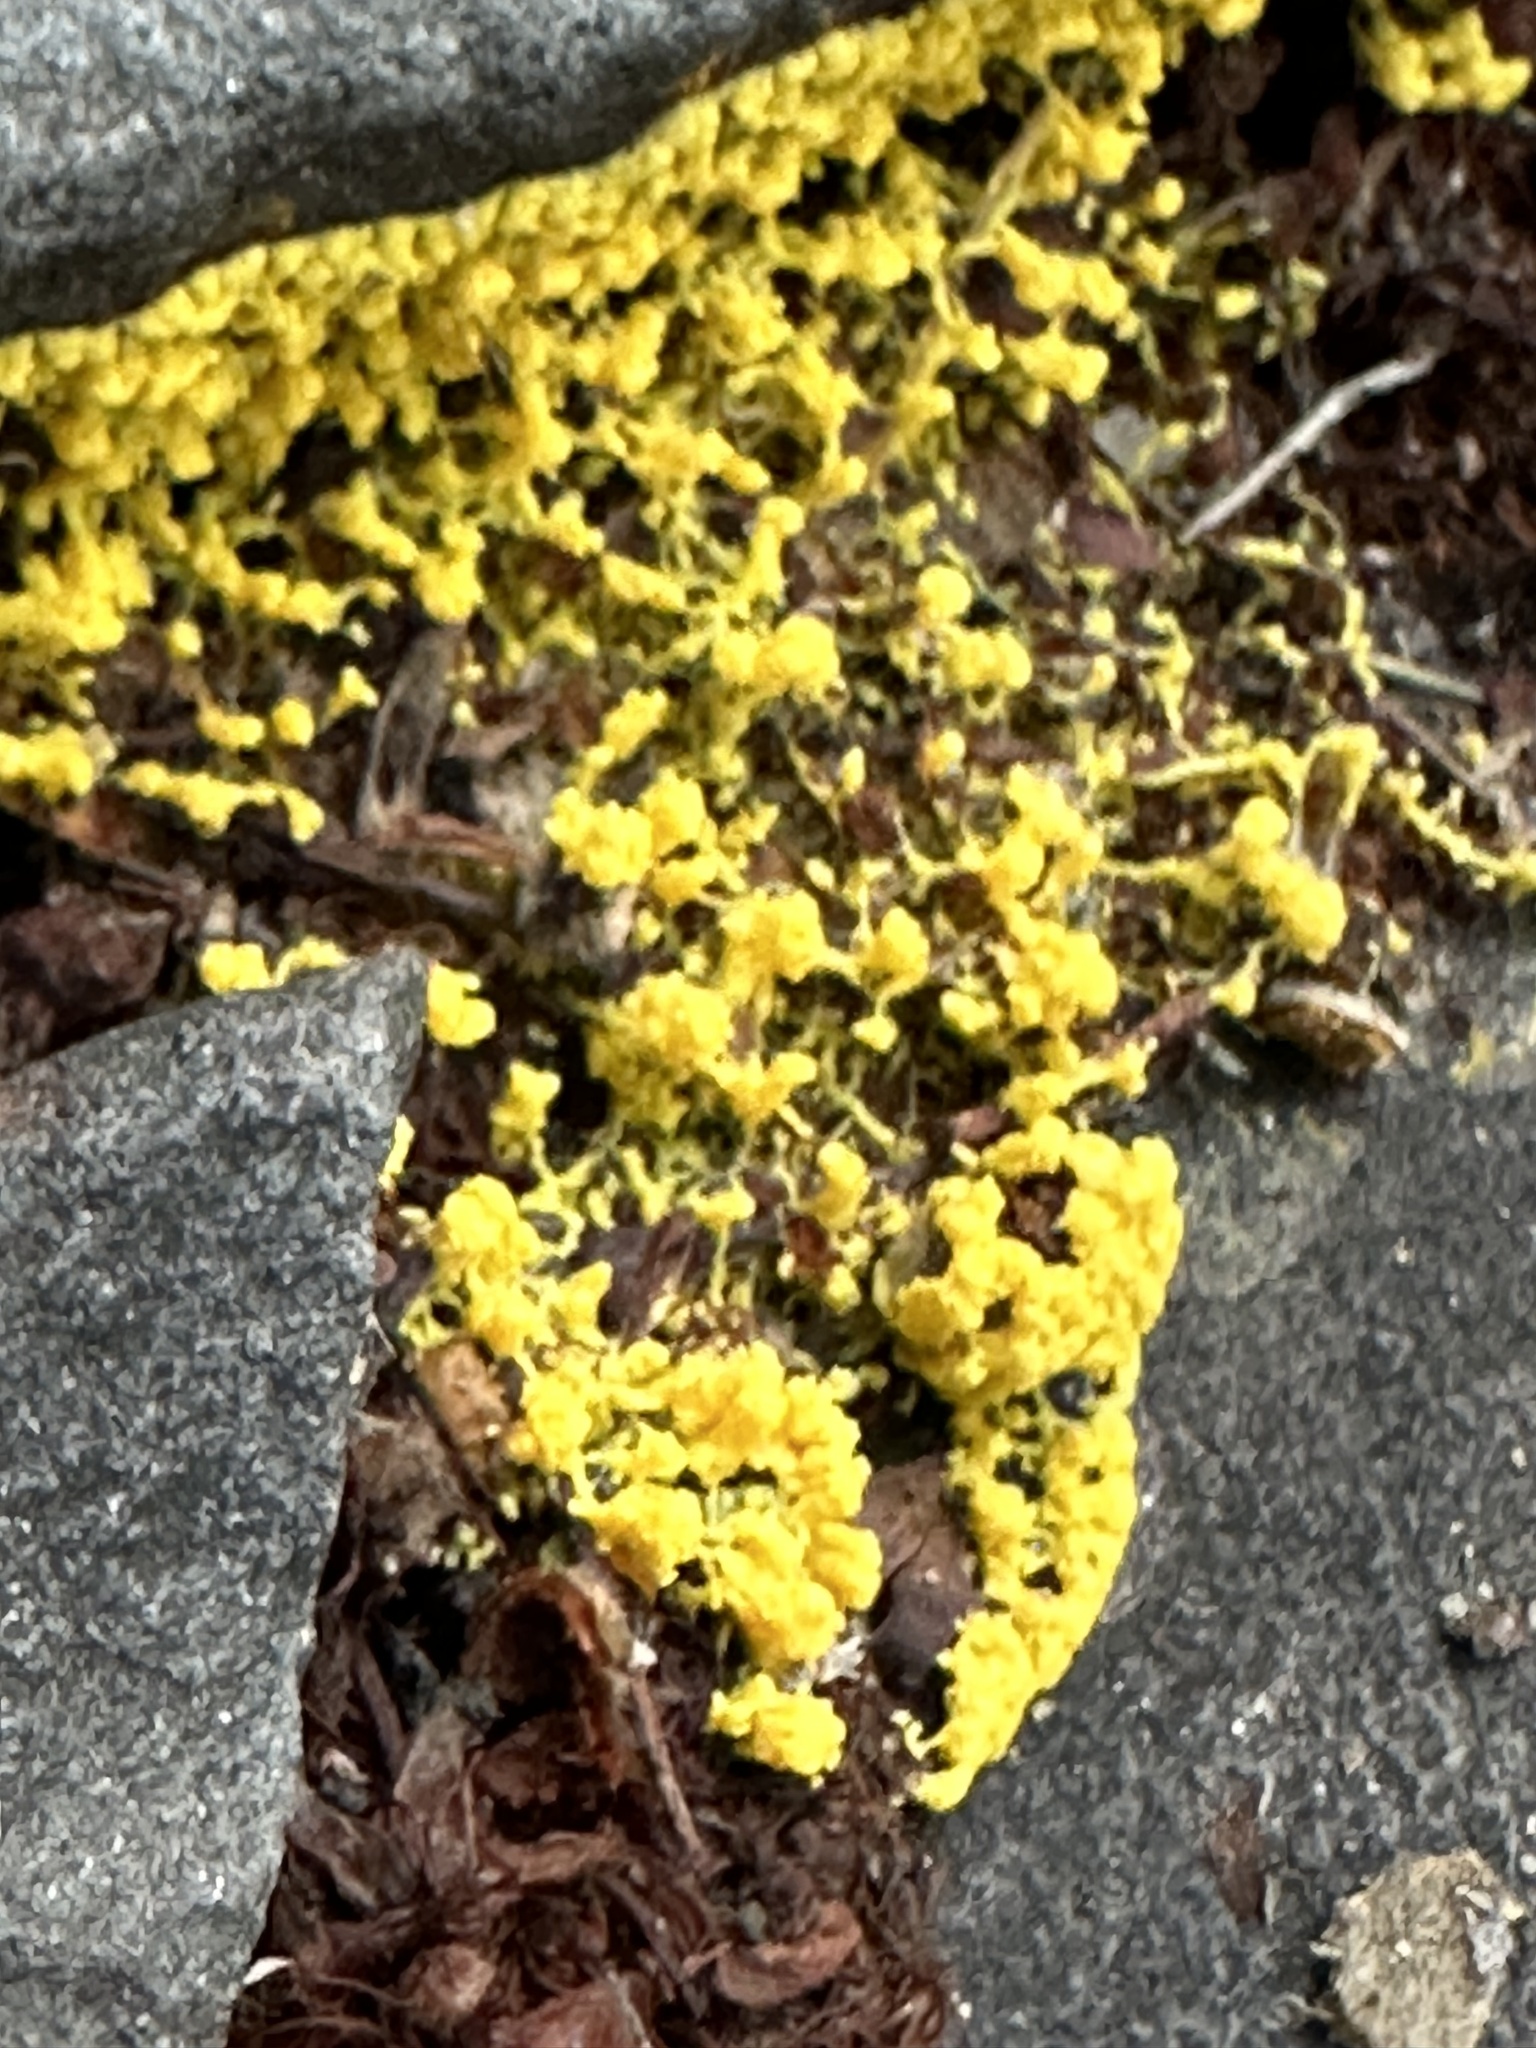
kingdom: Protozoa
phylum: Mycetozoa
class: Myxomycetes
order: Physarales
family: Physaraceae
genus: Fuligo
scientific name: Fuligo septica
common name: Dog vomit slime mold
